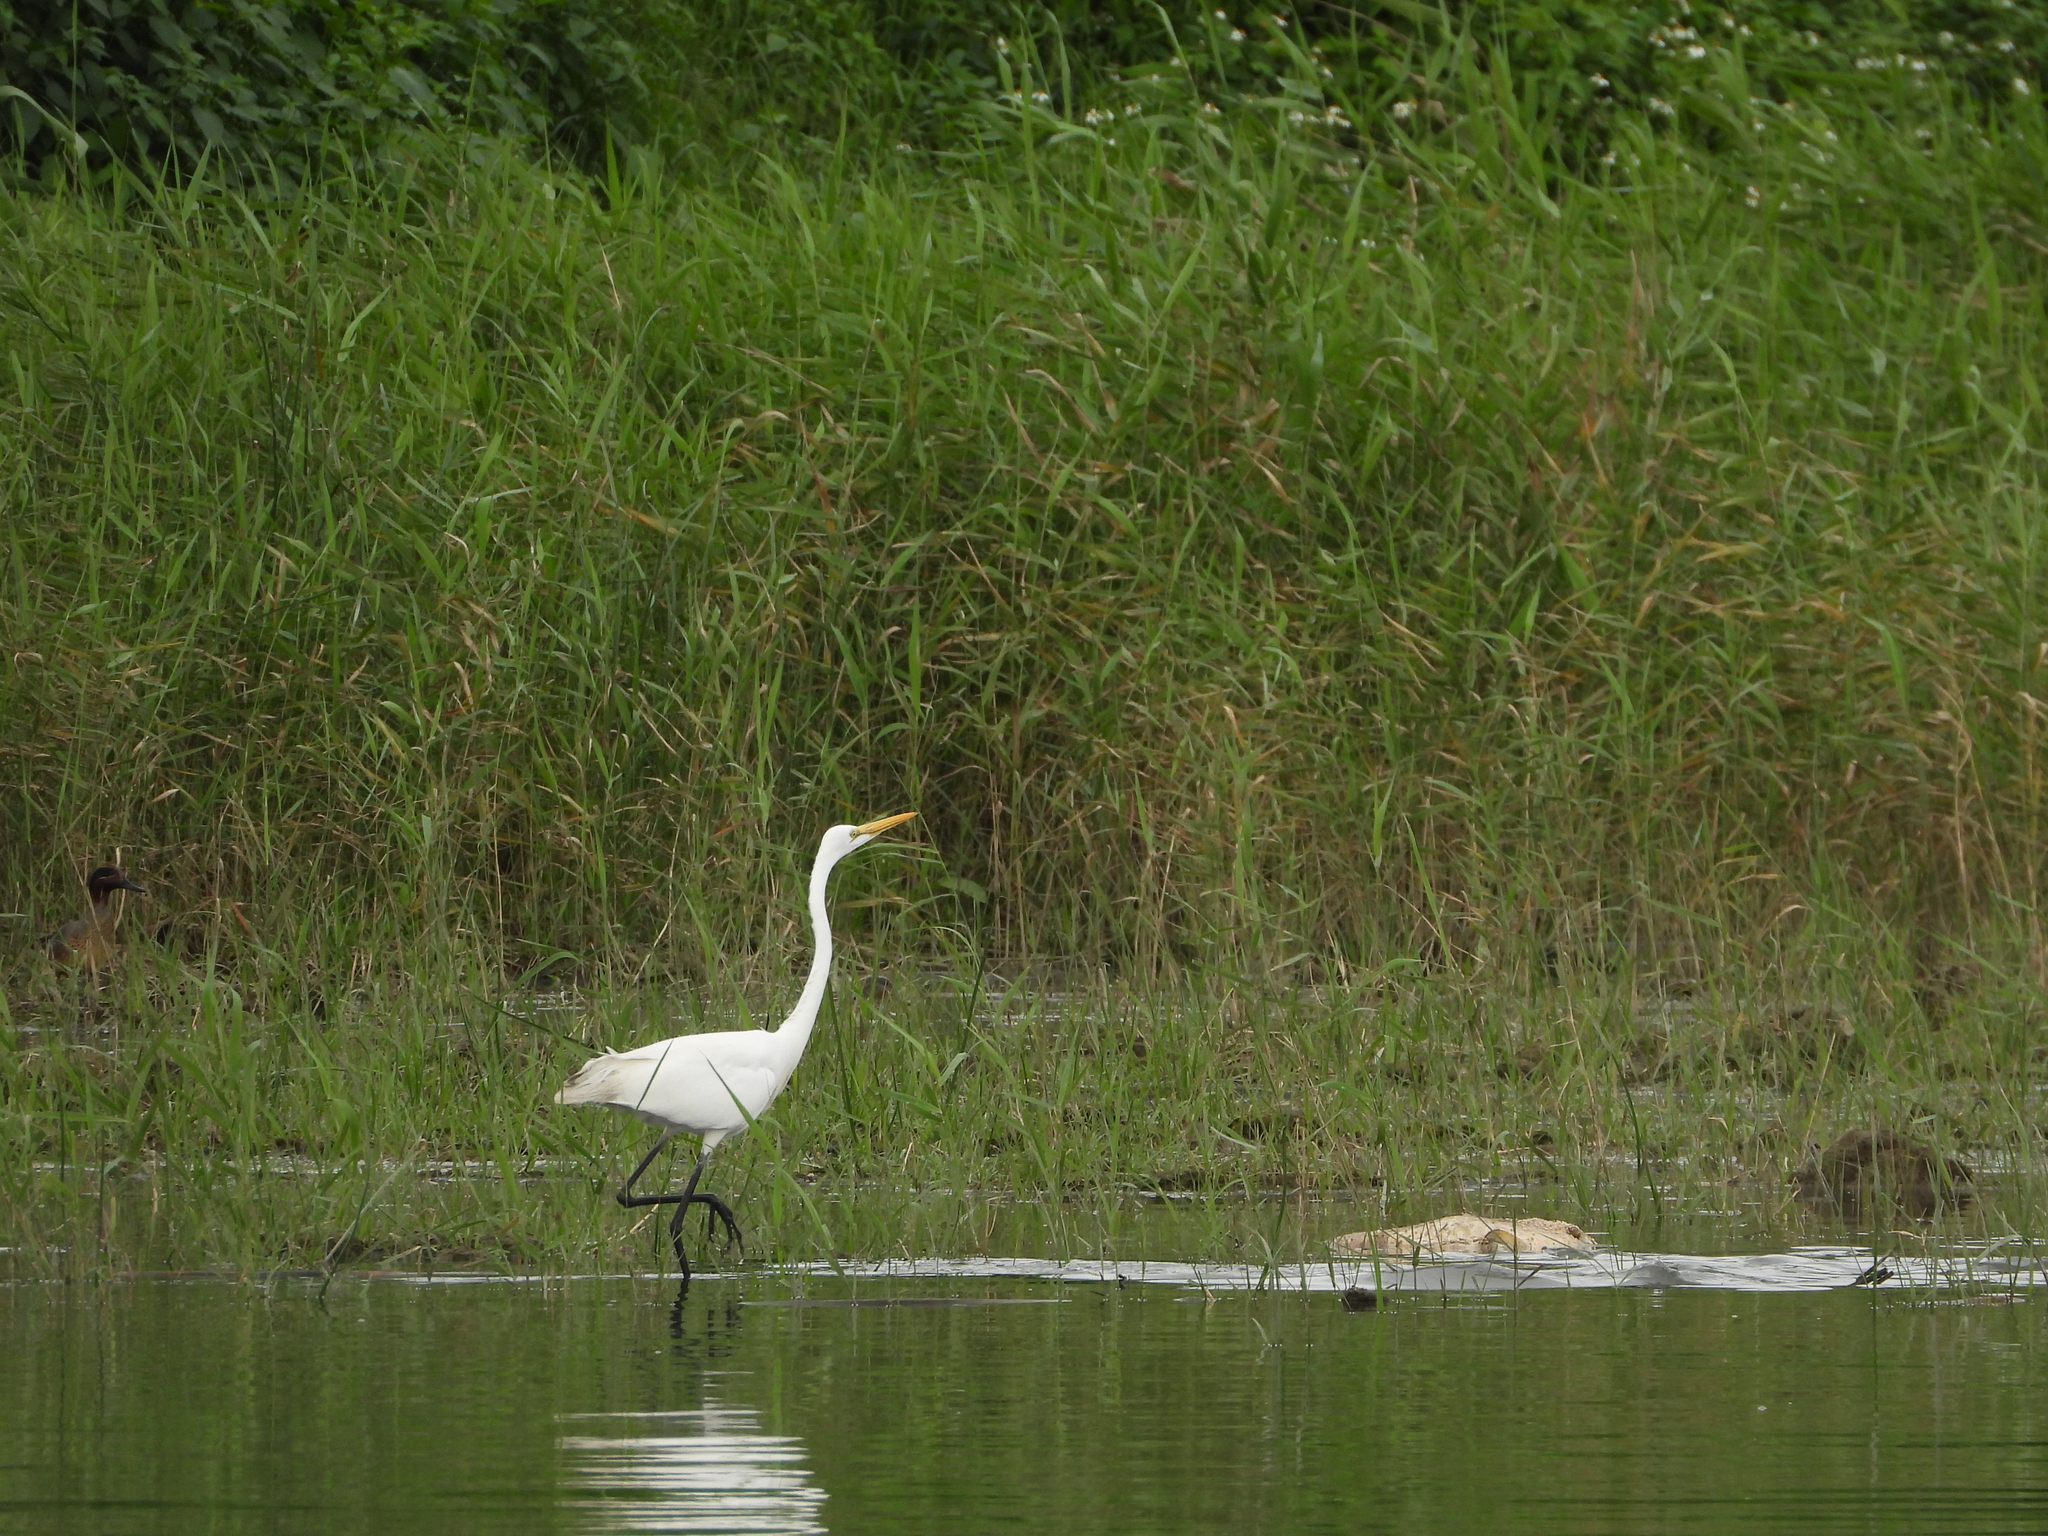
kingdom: Animalia
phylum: Chordata
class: Aves
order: Pelecaniformes
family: Ardeidae
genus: Ardea
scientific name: Ardea alba
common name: Great egret
